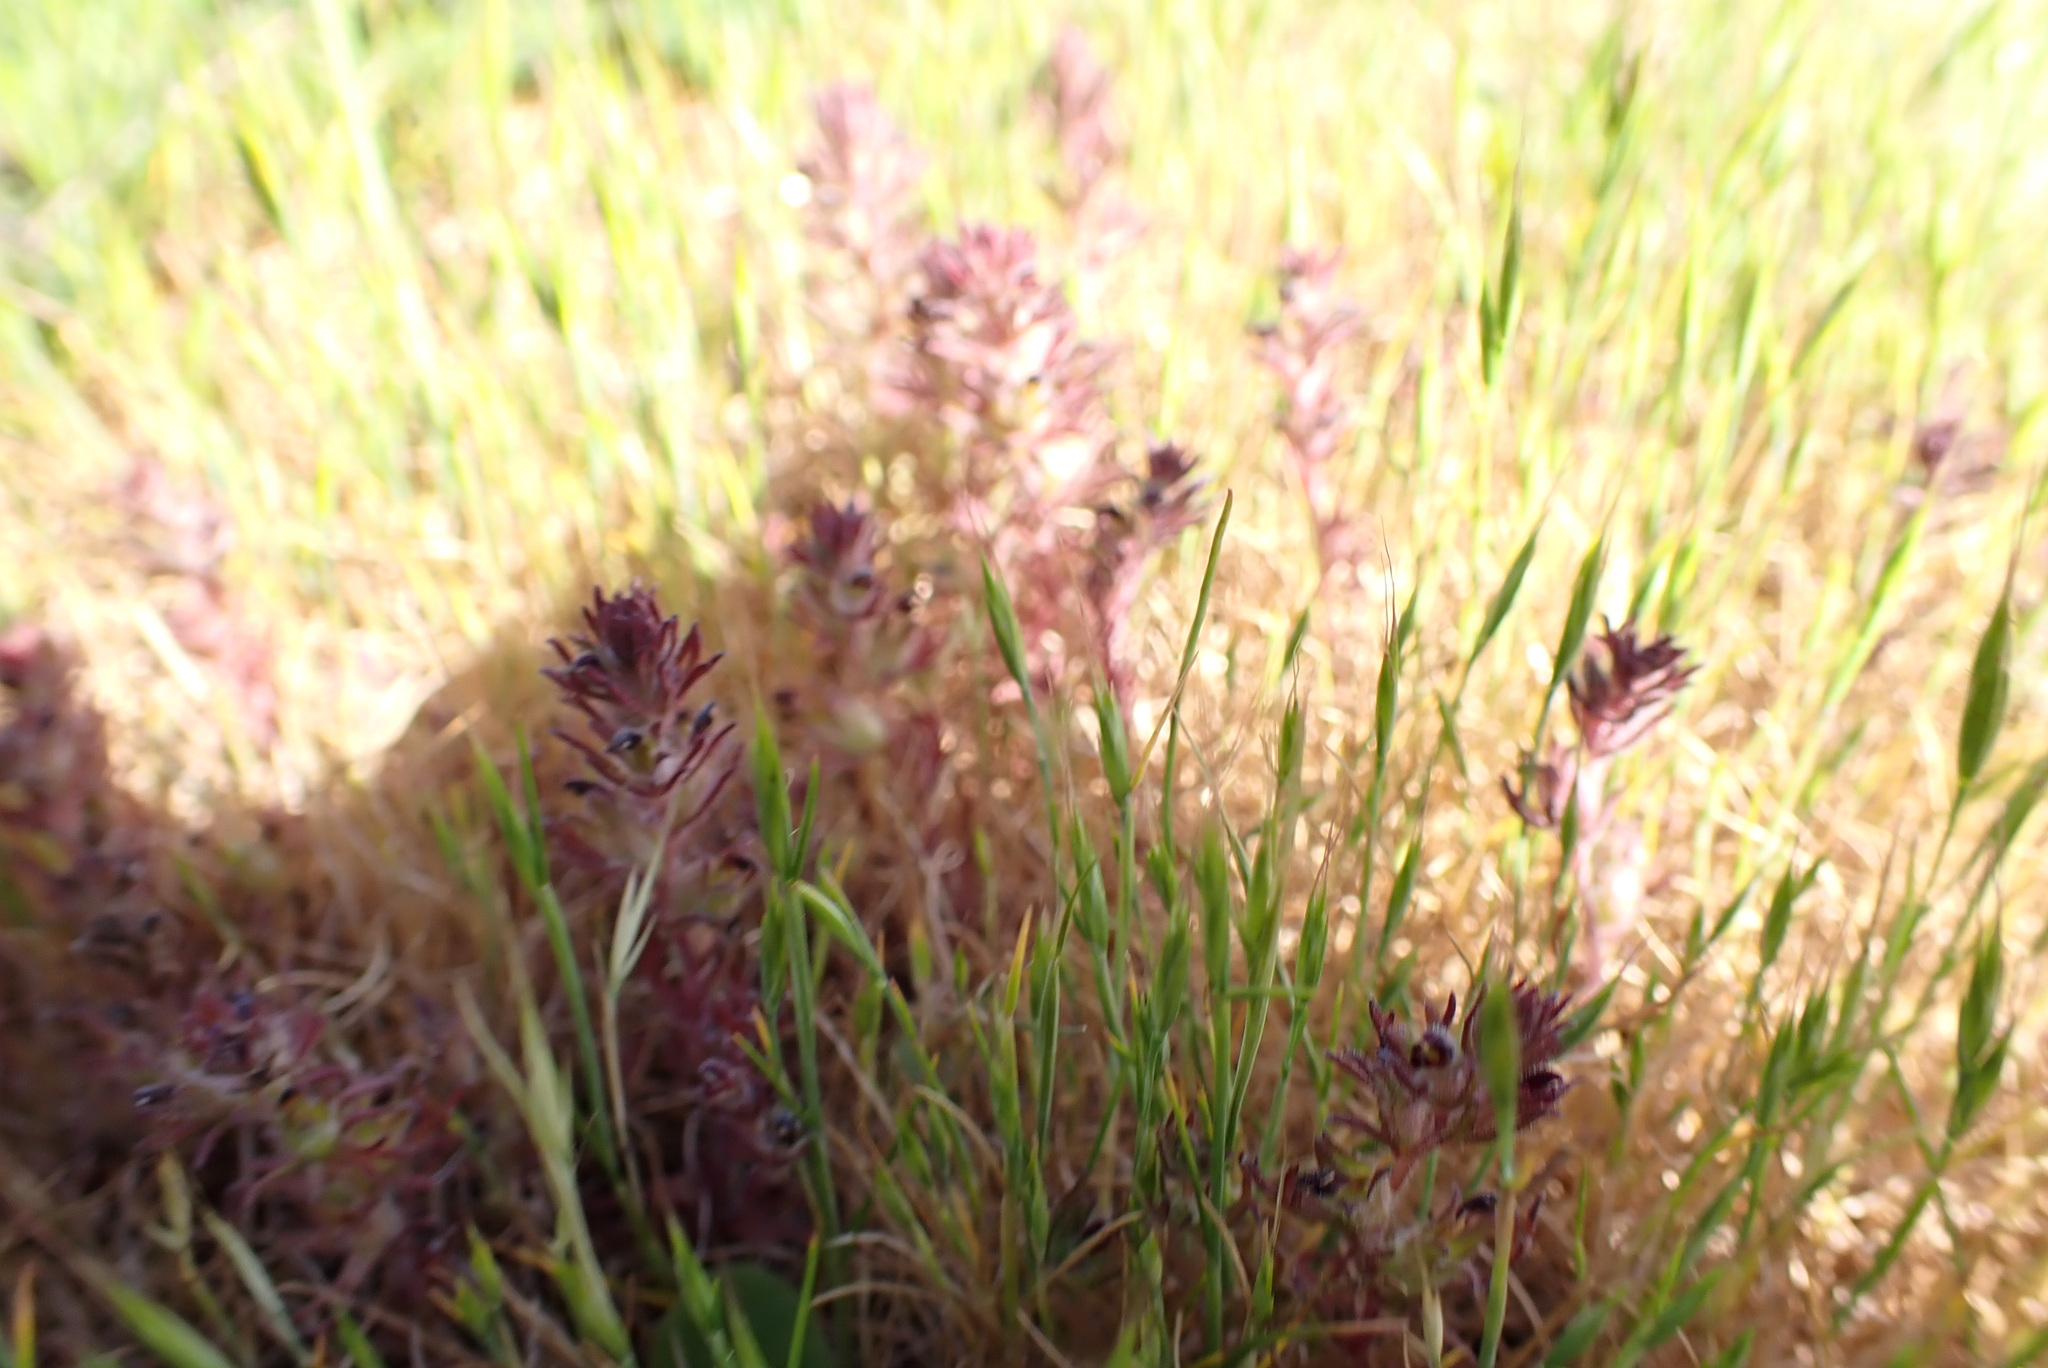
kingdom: Plantae
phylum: Tracheophyta
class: Magnoliopsida
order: Lamiales
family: Orobanchaceae
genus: Triphysaria
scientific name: Triphysaria pusilla
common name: Dwarf false owl-clover
